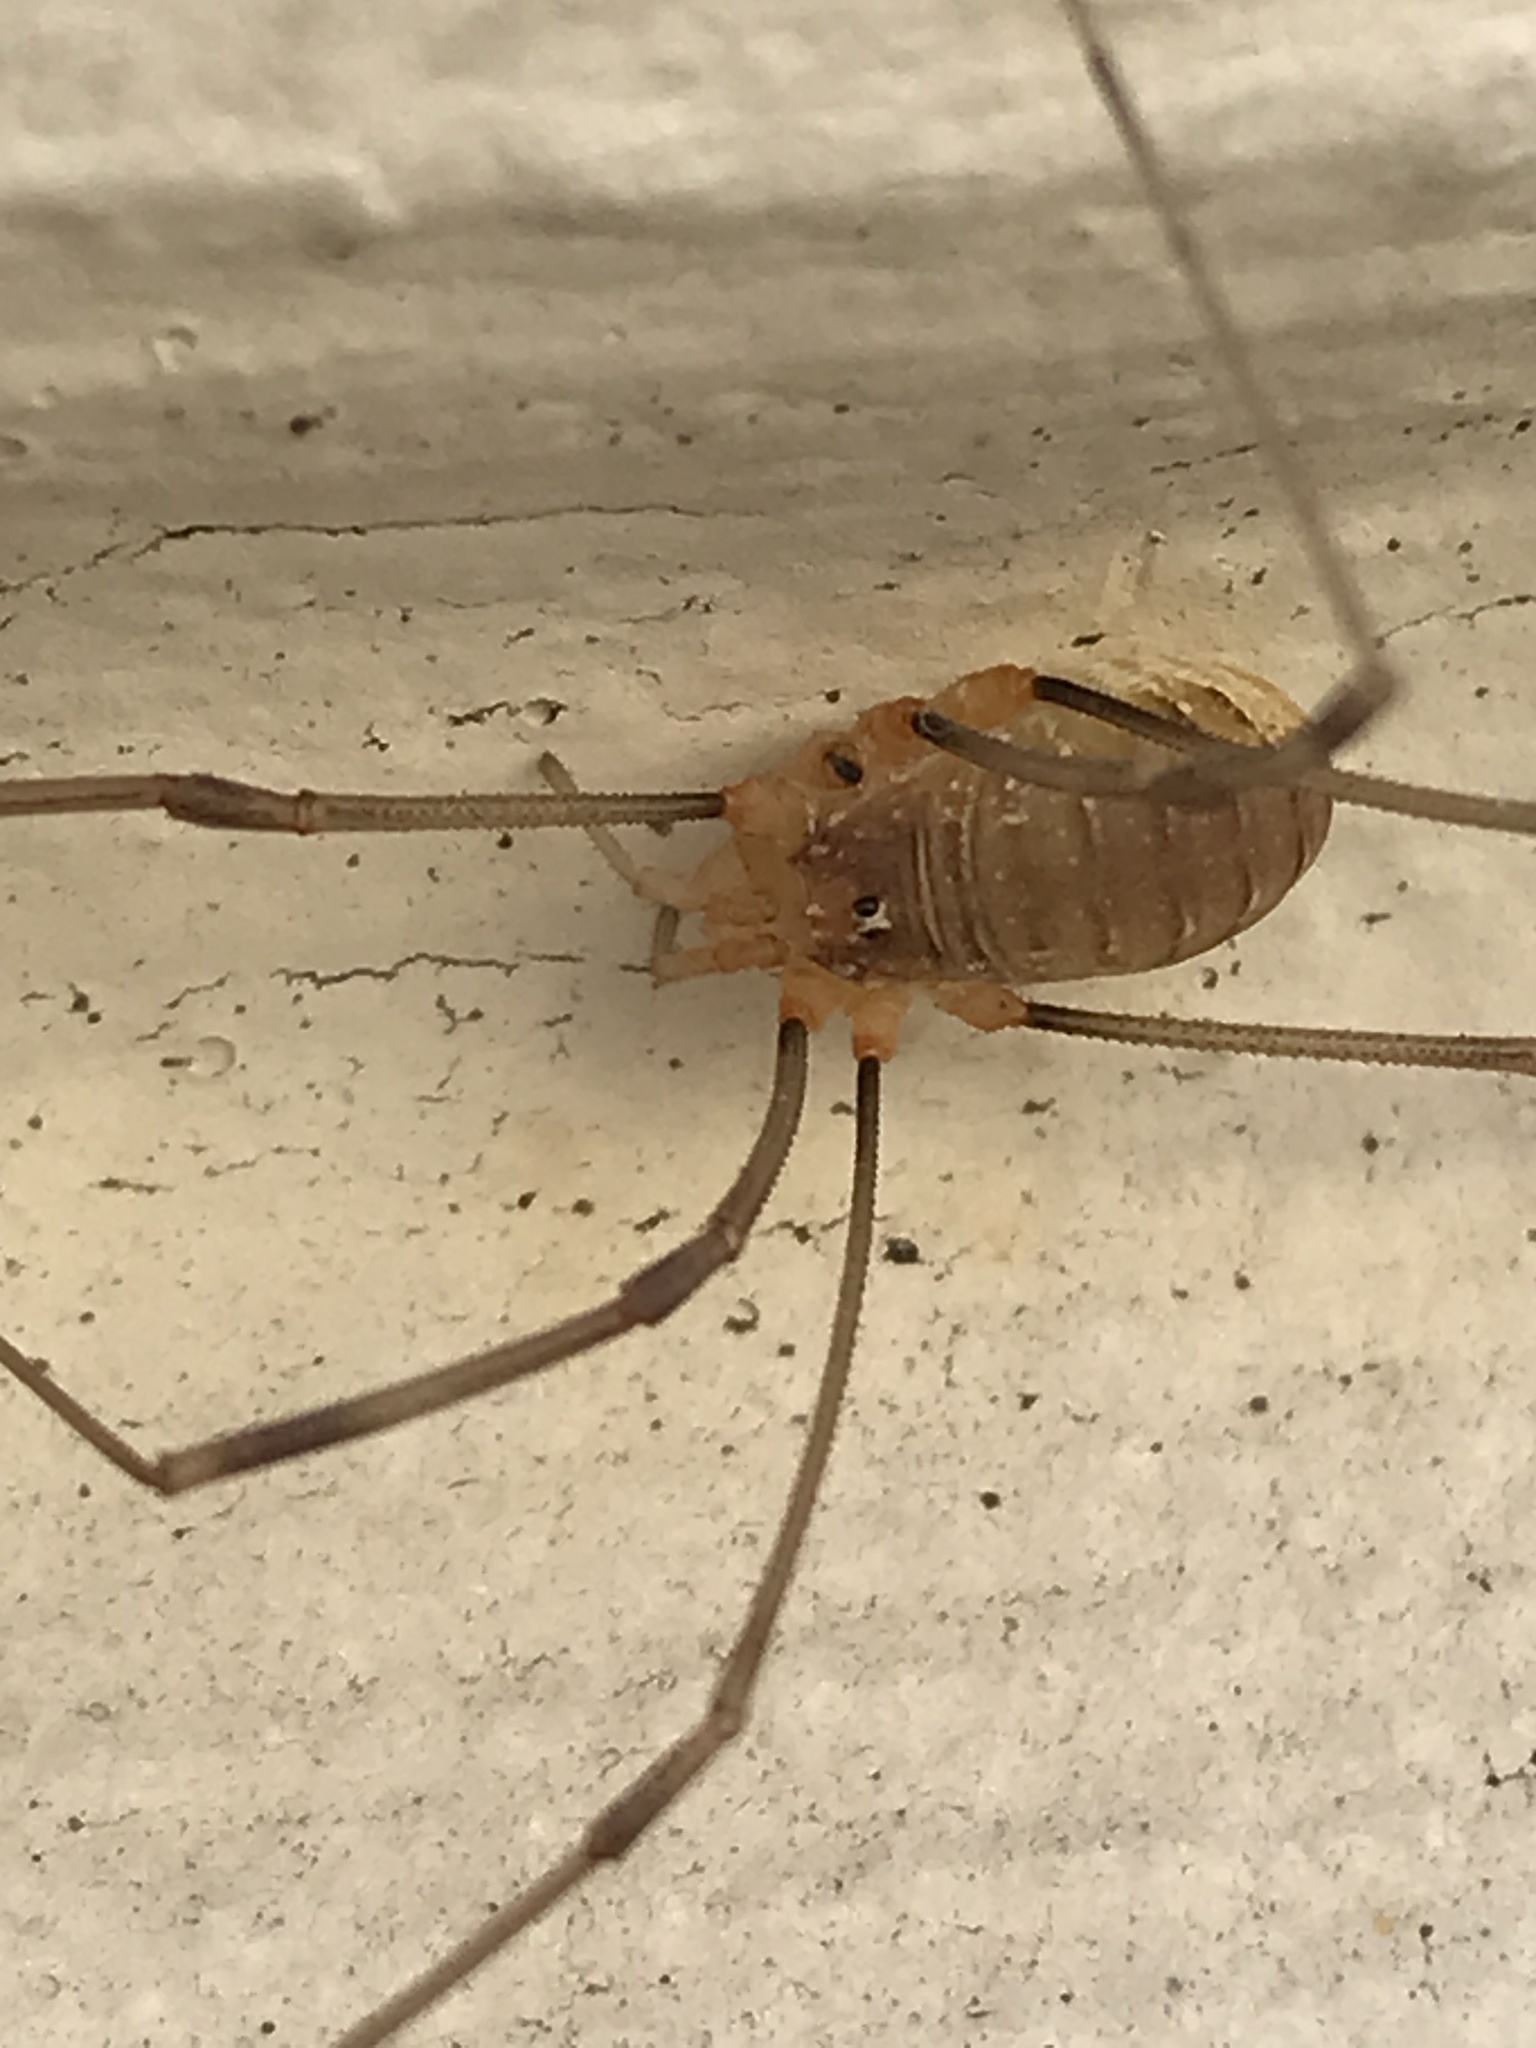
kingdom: Animalia
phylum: Arthropoda
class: Arachnida
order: Opiliones
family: Phalangiidae
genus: Opilio
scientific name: Opilio canestrinii
